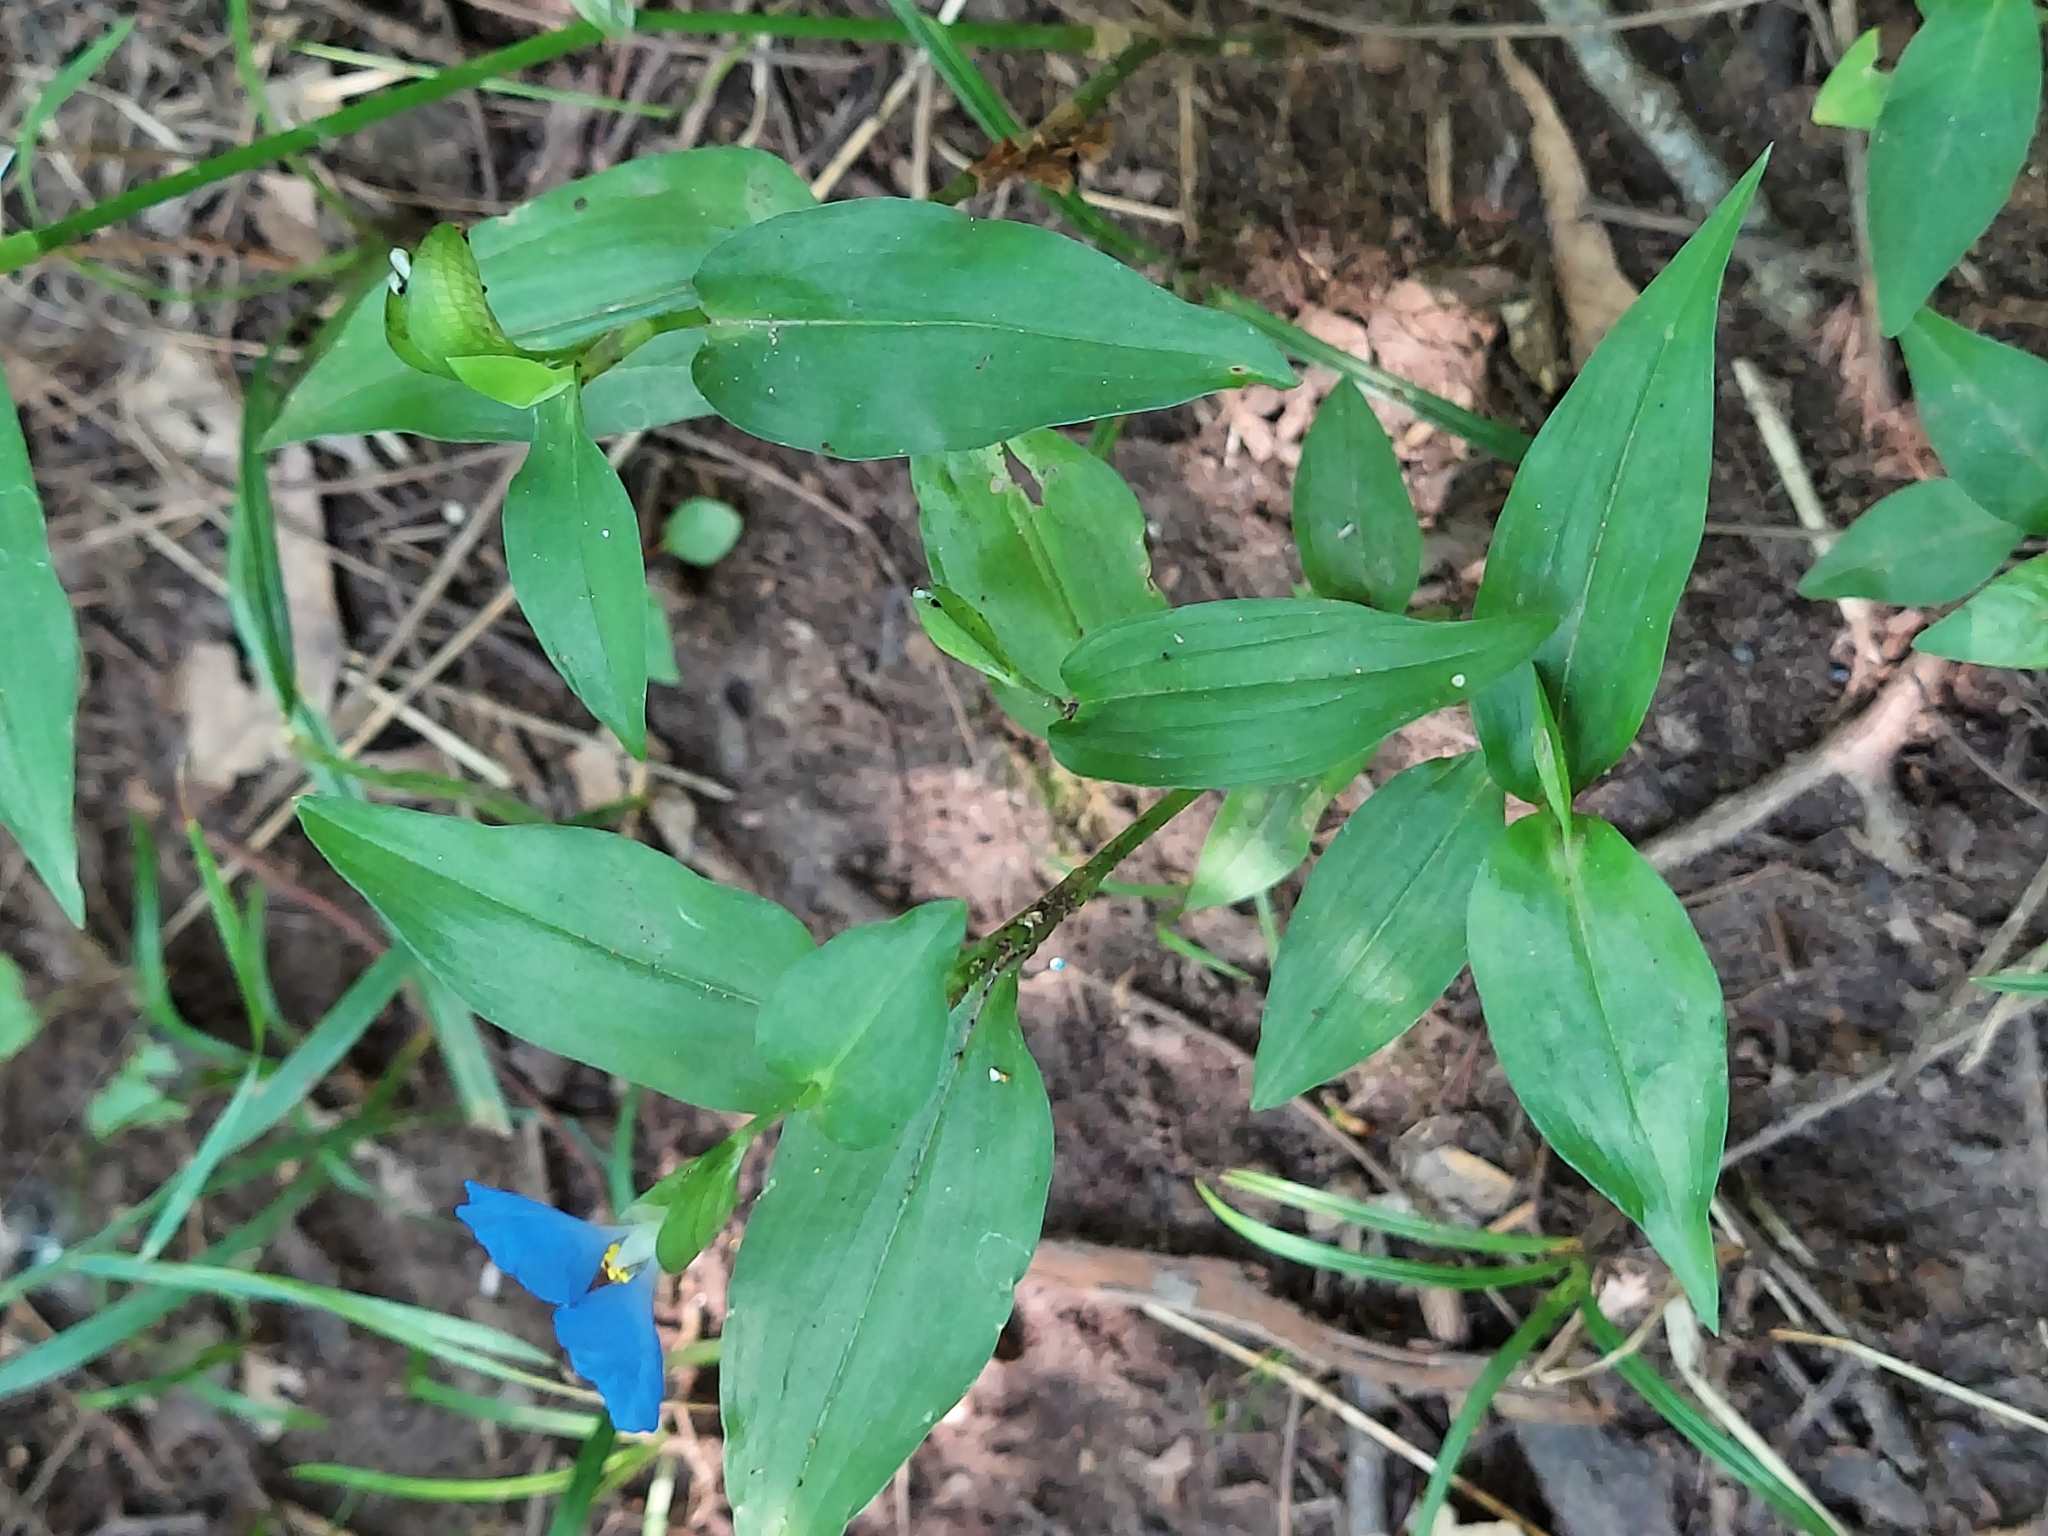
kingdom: Plantae
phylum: Tracheophyta
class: Liliopsida
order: Commelinales
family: Commelinaceae
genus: Commelina
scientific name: Commelina communis
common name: Asiatic dayflower
